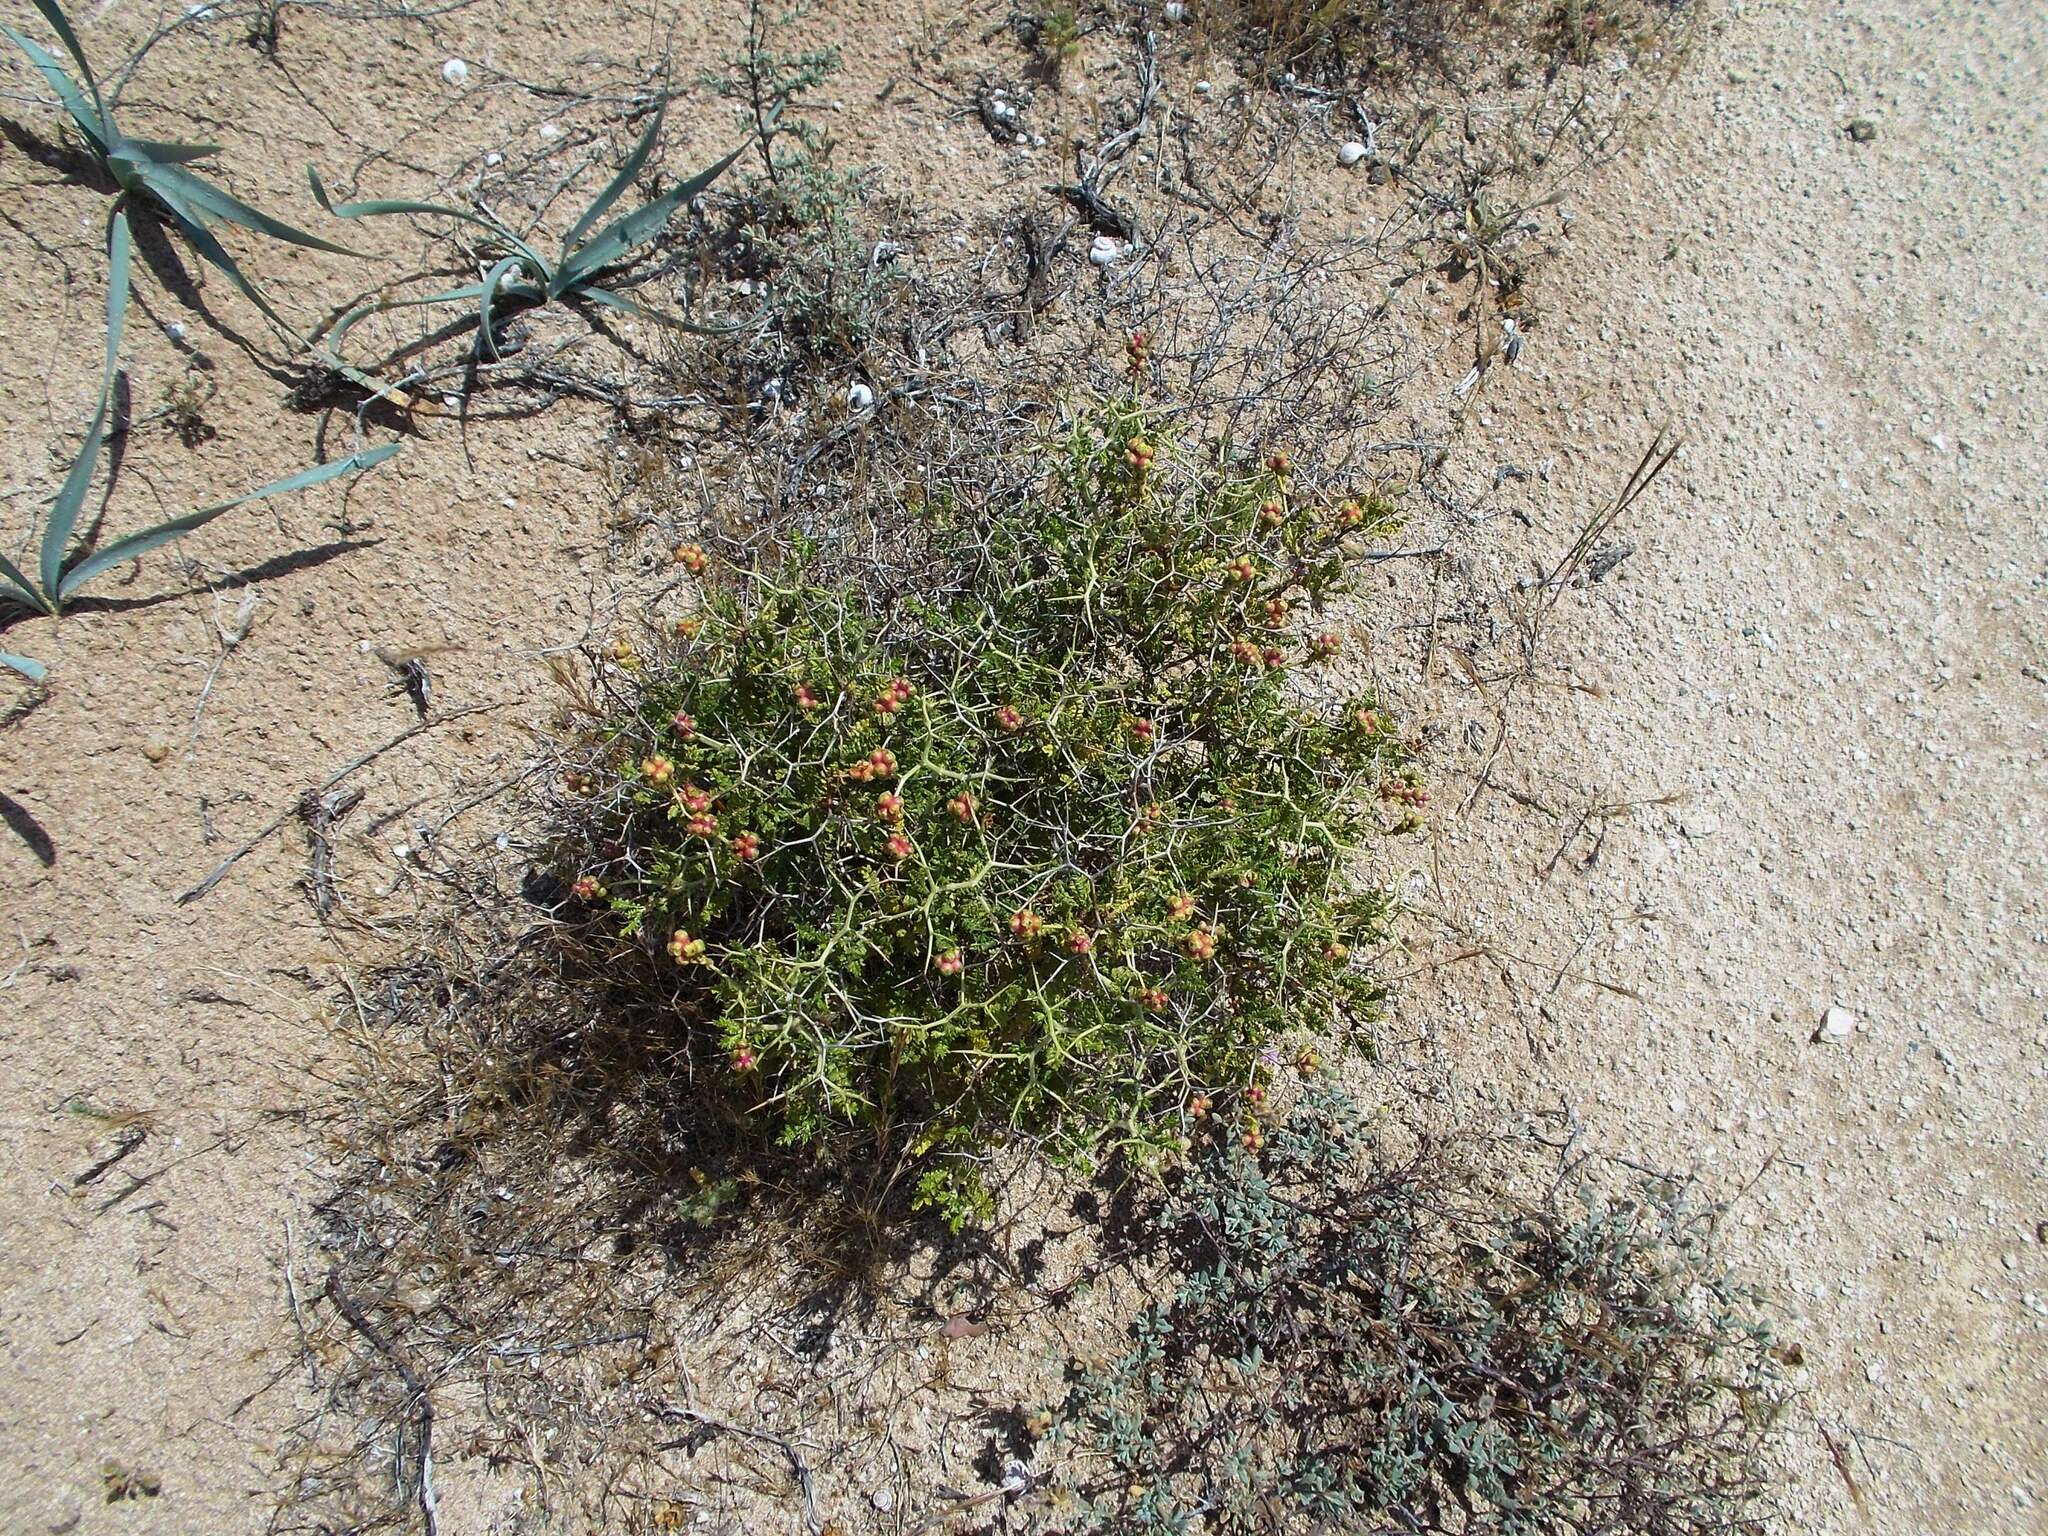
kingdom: Plantae
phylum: Tracheophyta
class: Magnoliopsida
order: Rosales
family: Rosaceae
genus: Sarcopoterium
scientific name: Sarcopoterium spinosum
